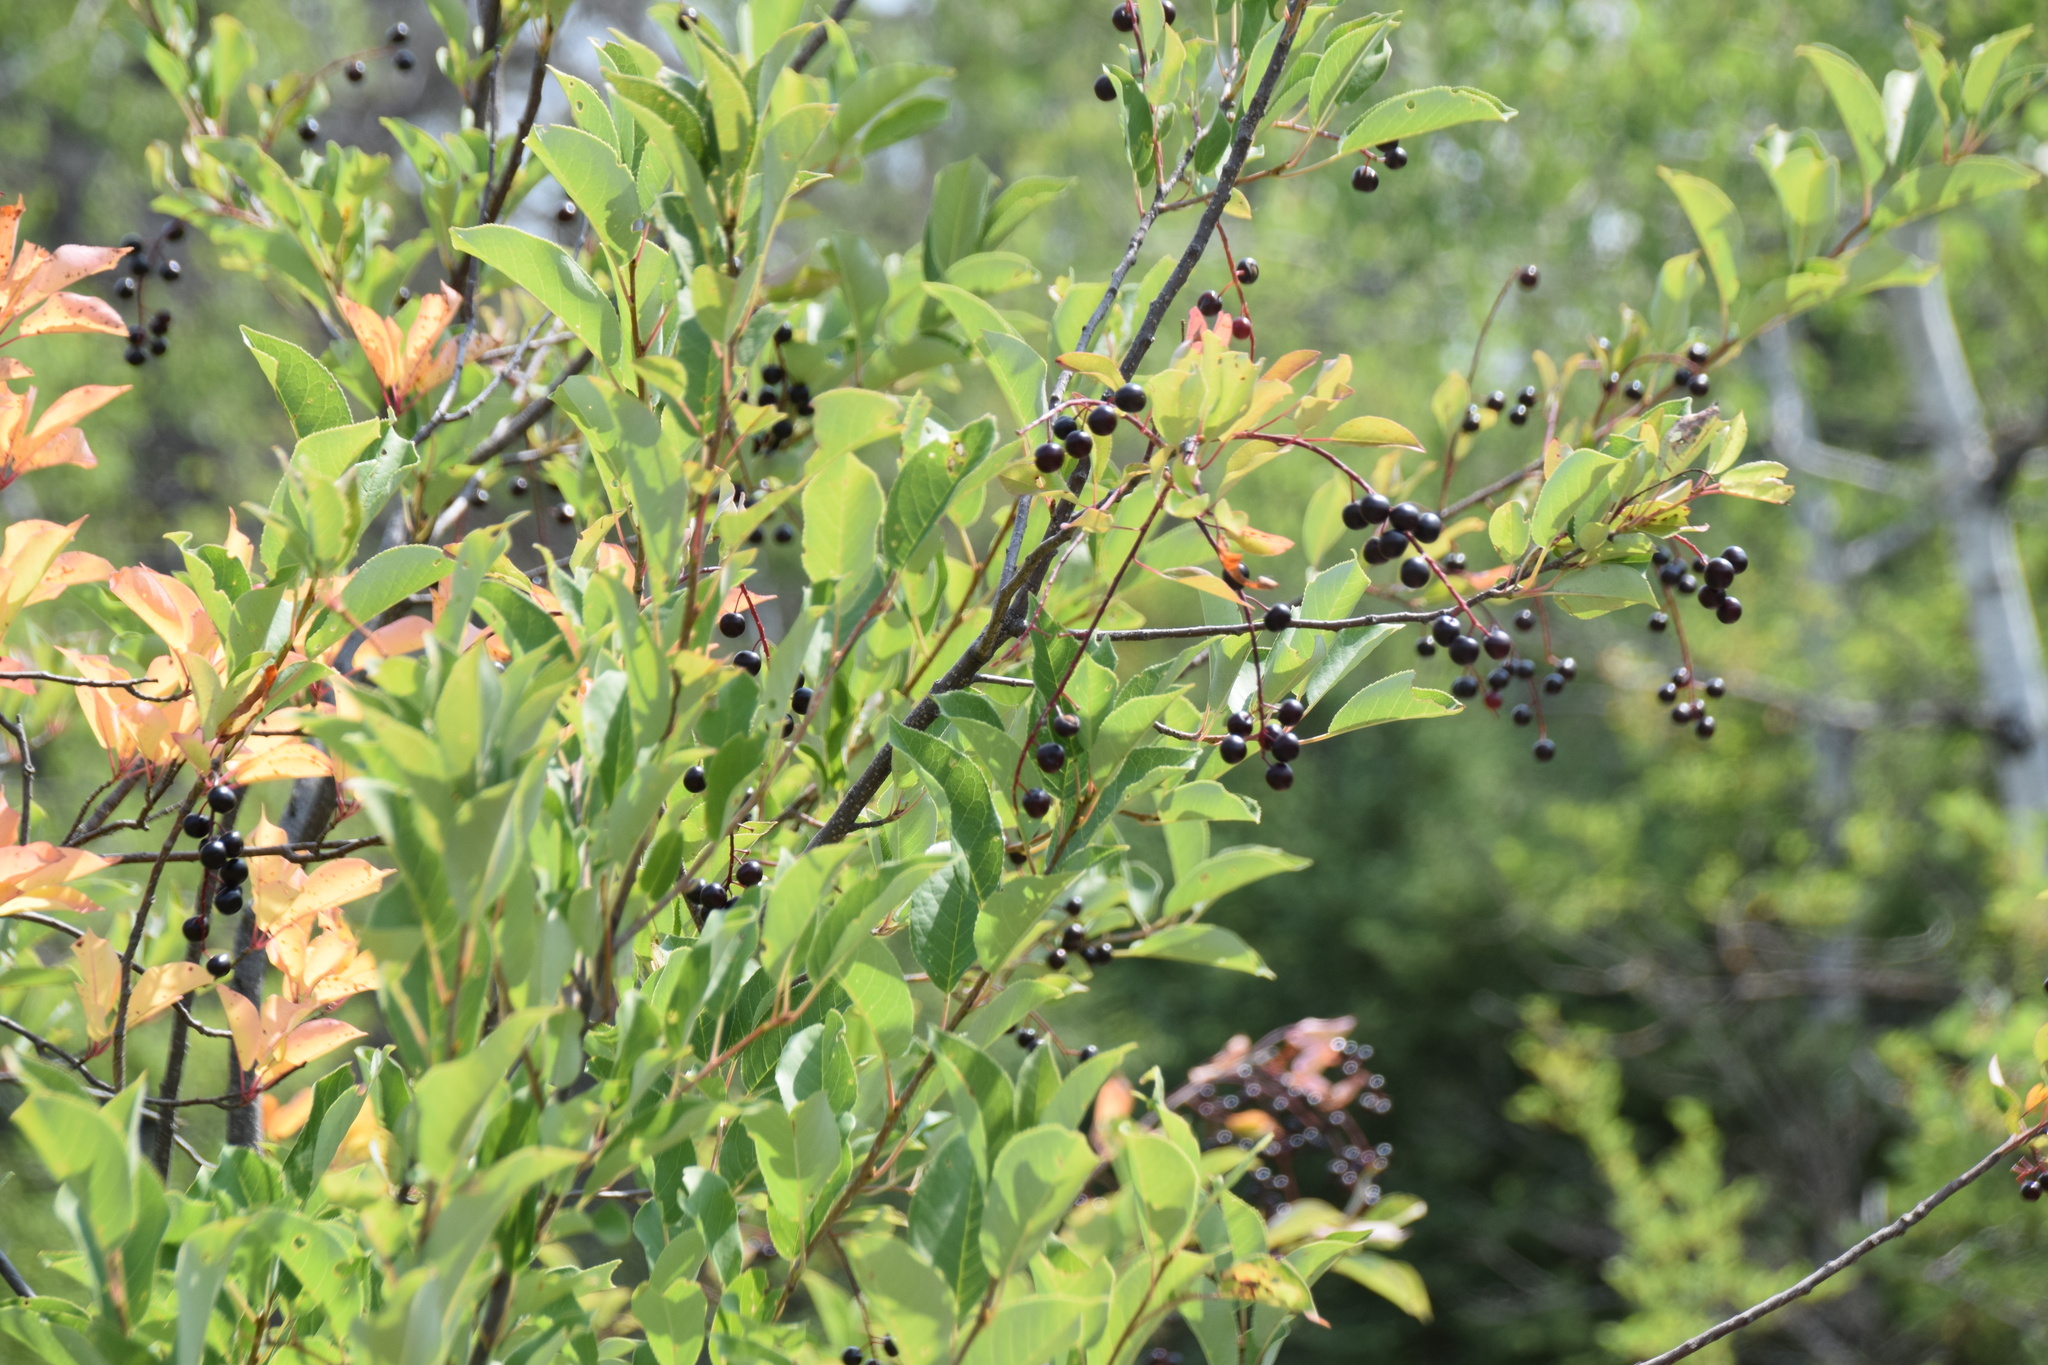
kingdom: Plantae
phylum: Tracheophyta
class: Magnoliopsida
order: Rosales
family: Rosaceae
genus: Prunus
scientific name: Prunus virginiana
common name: Chokecherry
